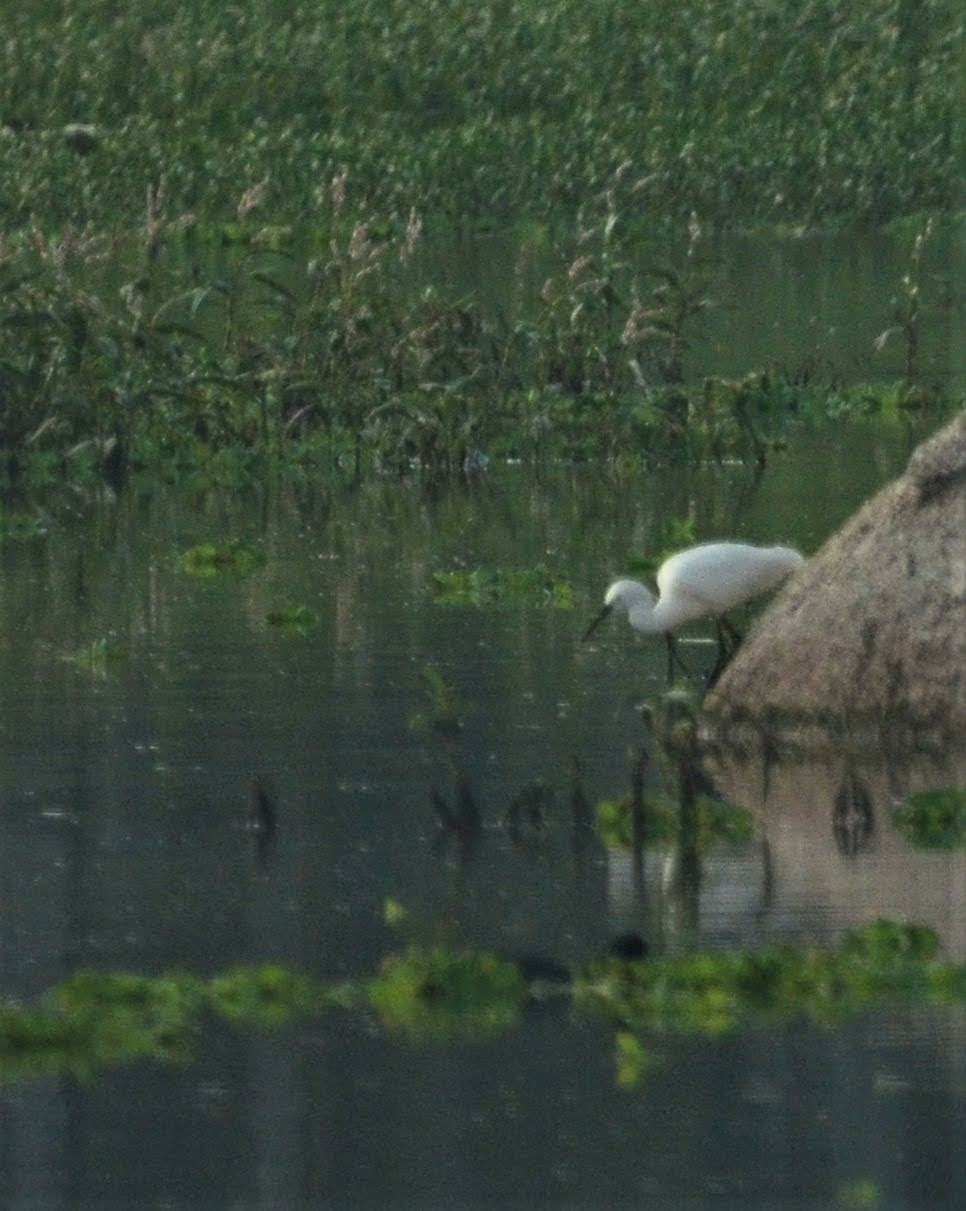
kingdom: Animalia
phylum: Chordata
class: Aves
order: Pelecaniformes
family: Ardeidae
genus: Egretta
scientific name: Egretta garzetta
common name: Little egret
